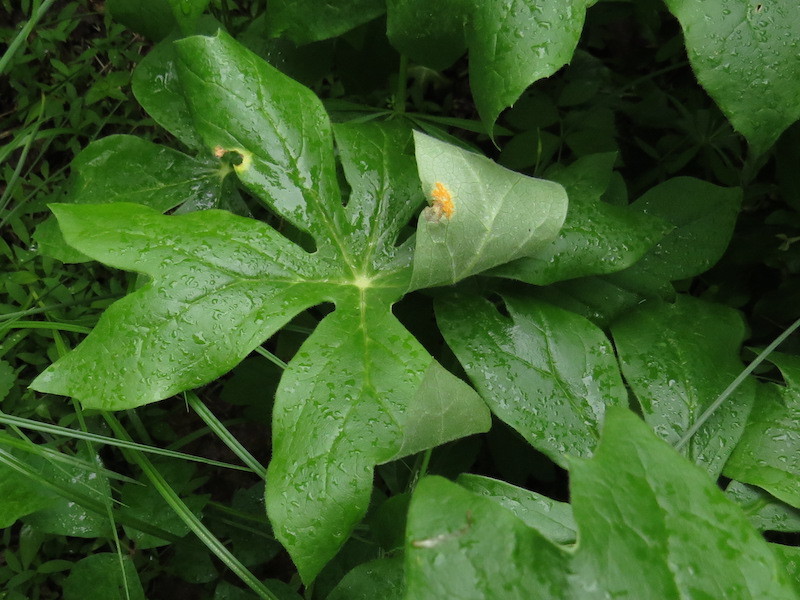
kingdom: Fungi
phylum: Basidiomycota
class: Pucciniomycetes
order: Pucciniales
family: Pucciniaceae
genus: Puccinia
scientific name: Puccinia podophylli
